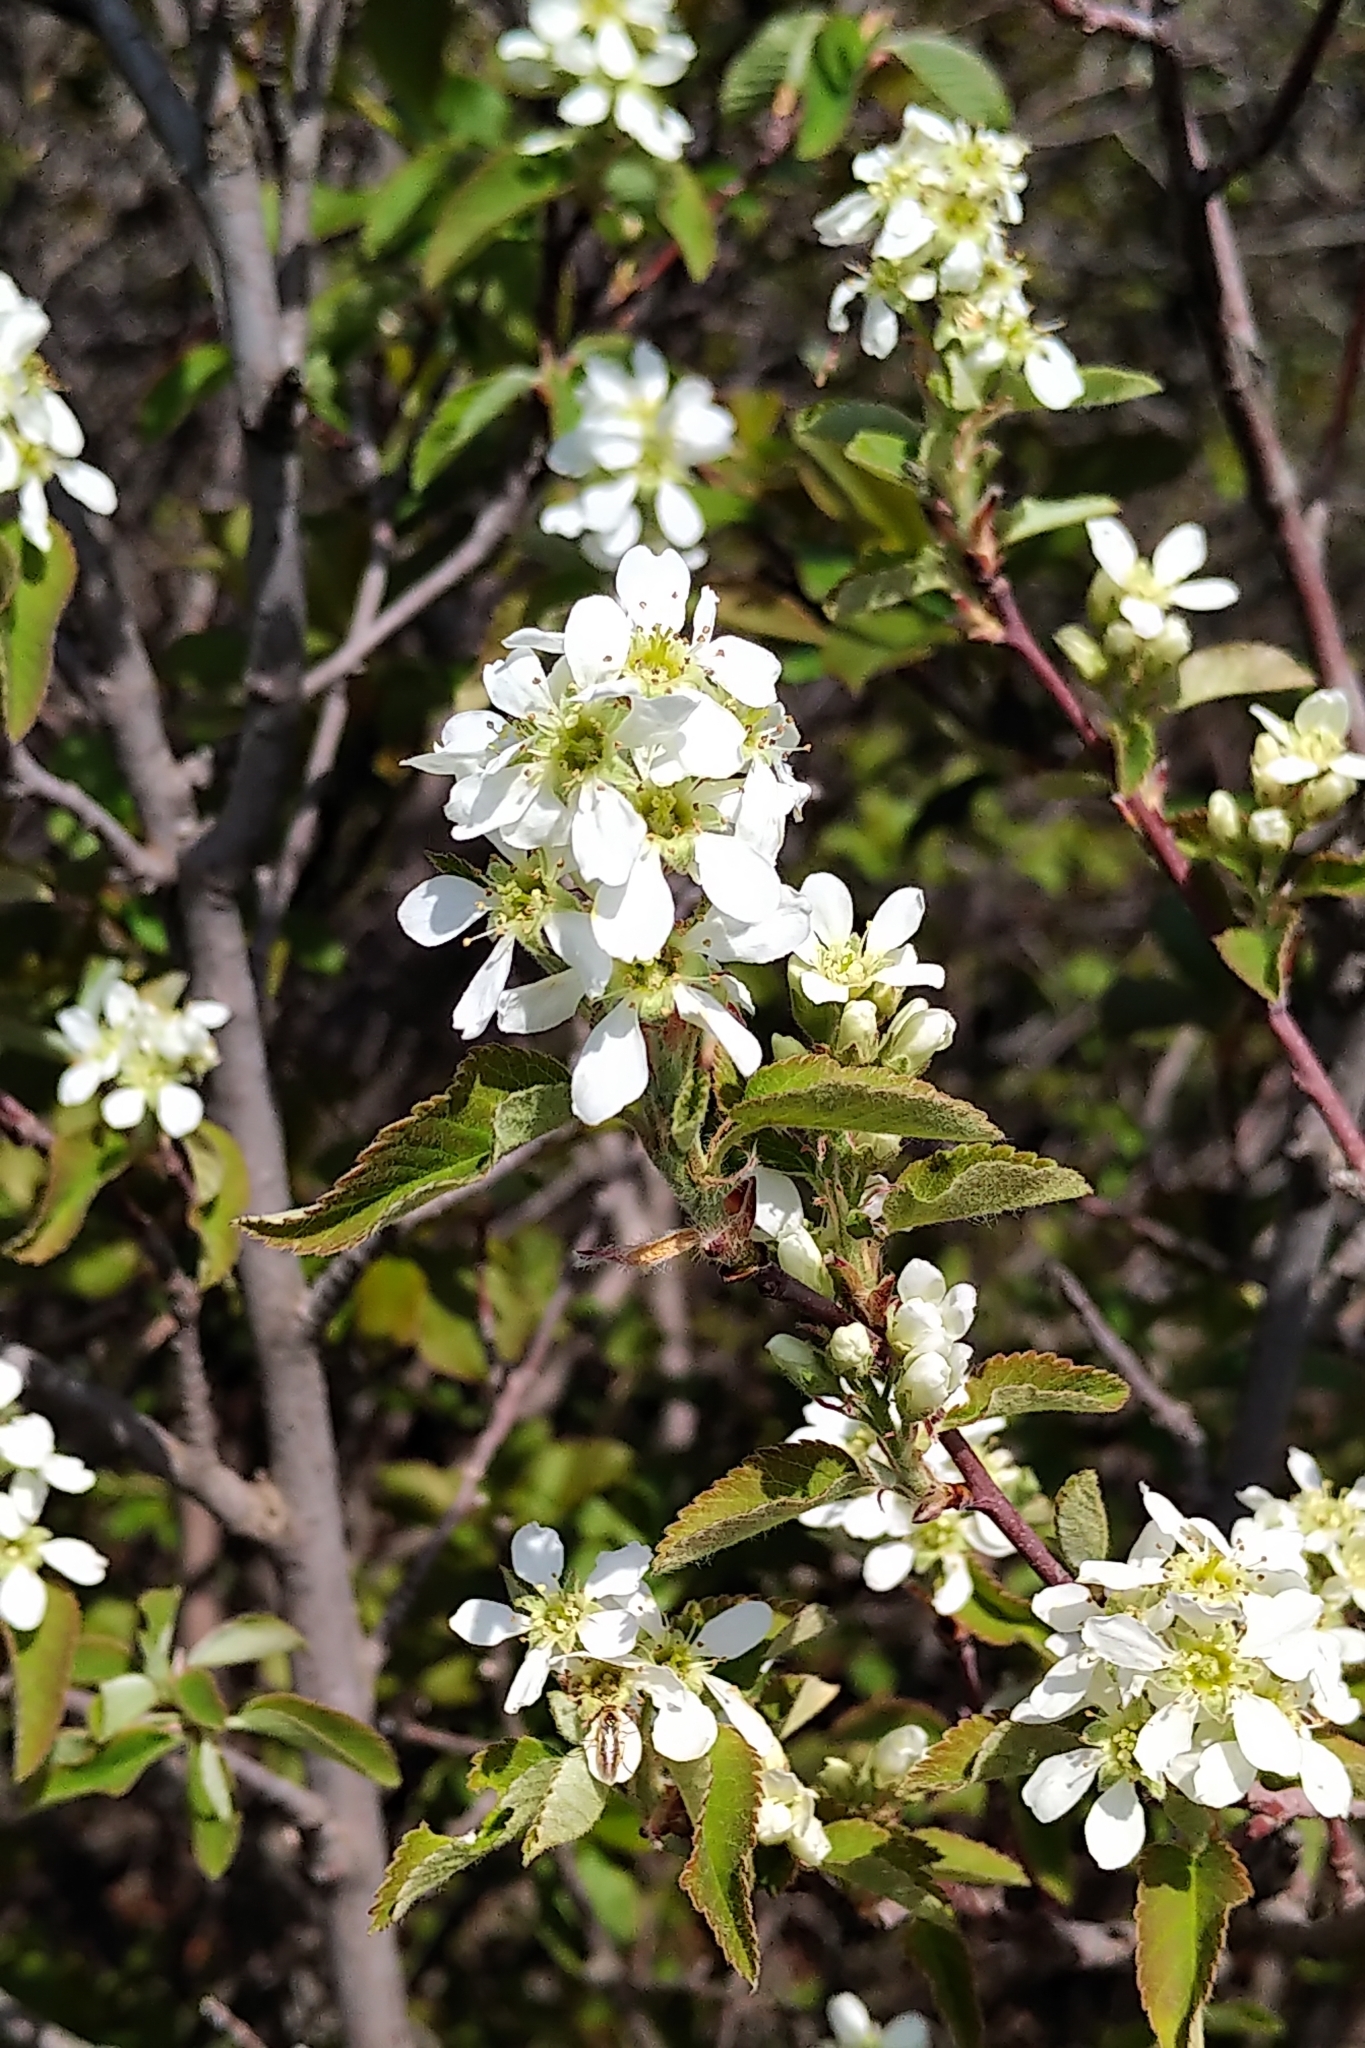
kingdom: Plantae
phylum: Tracheophyta
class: Magnoliopsida
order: Rosales
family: Rosaceae
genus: Amelanchier
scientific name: Amelanchier alnifolia
